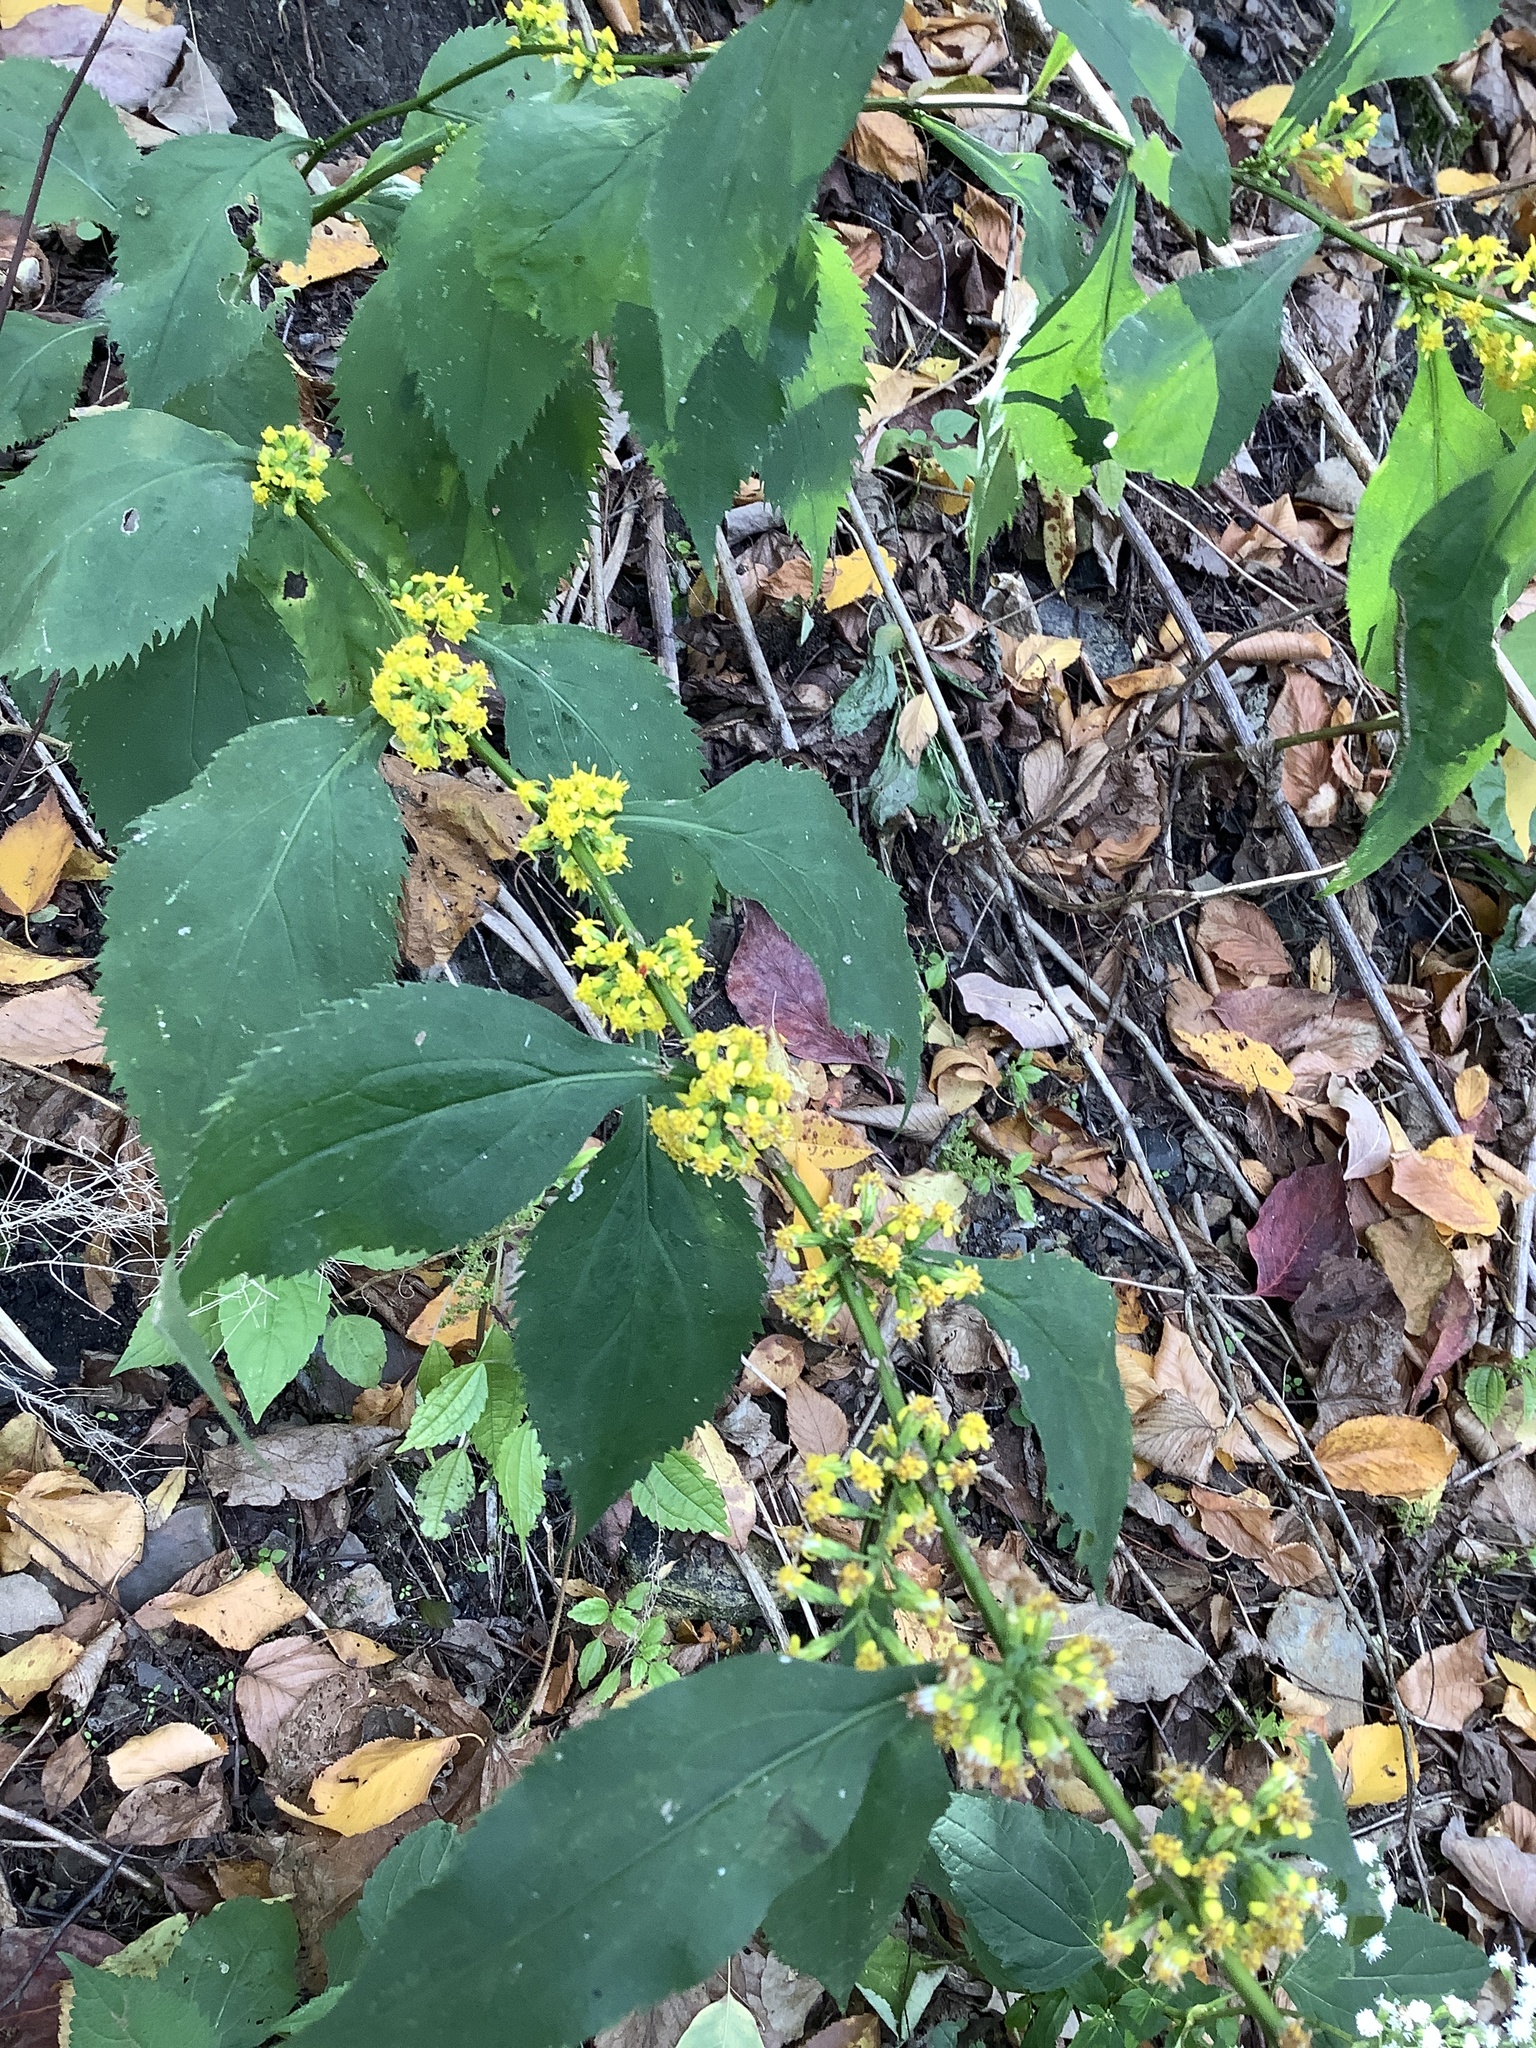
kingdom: Plantae
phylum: Tracheophyta
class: Magnoliopsida
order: Asterales
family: Asteraceae
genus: Solidago
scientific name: Solidago flexicaulis
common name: Zig-zag goldenrod
